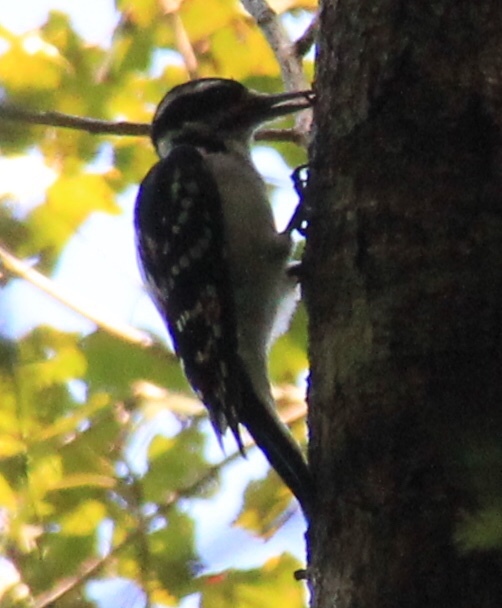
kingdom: Animalia
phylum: Chordata
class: Aves
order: Piciformes
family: Picidae
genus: Leuconotopicus
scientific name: Leuconotopicus villosus
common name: Hairy woodpecker
